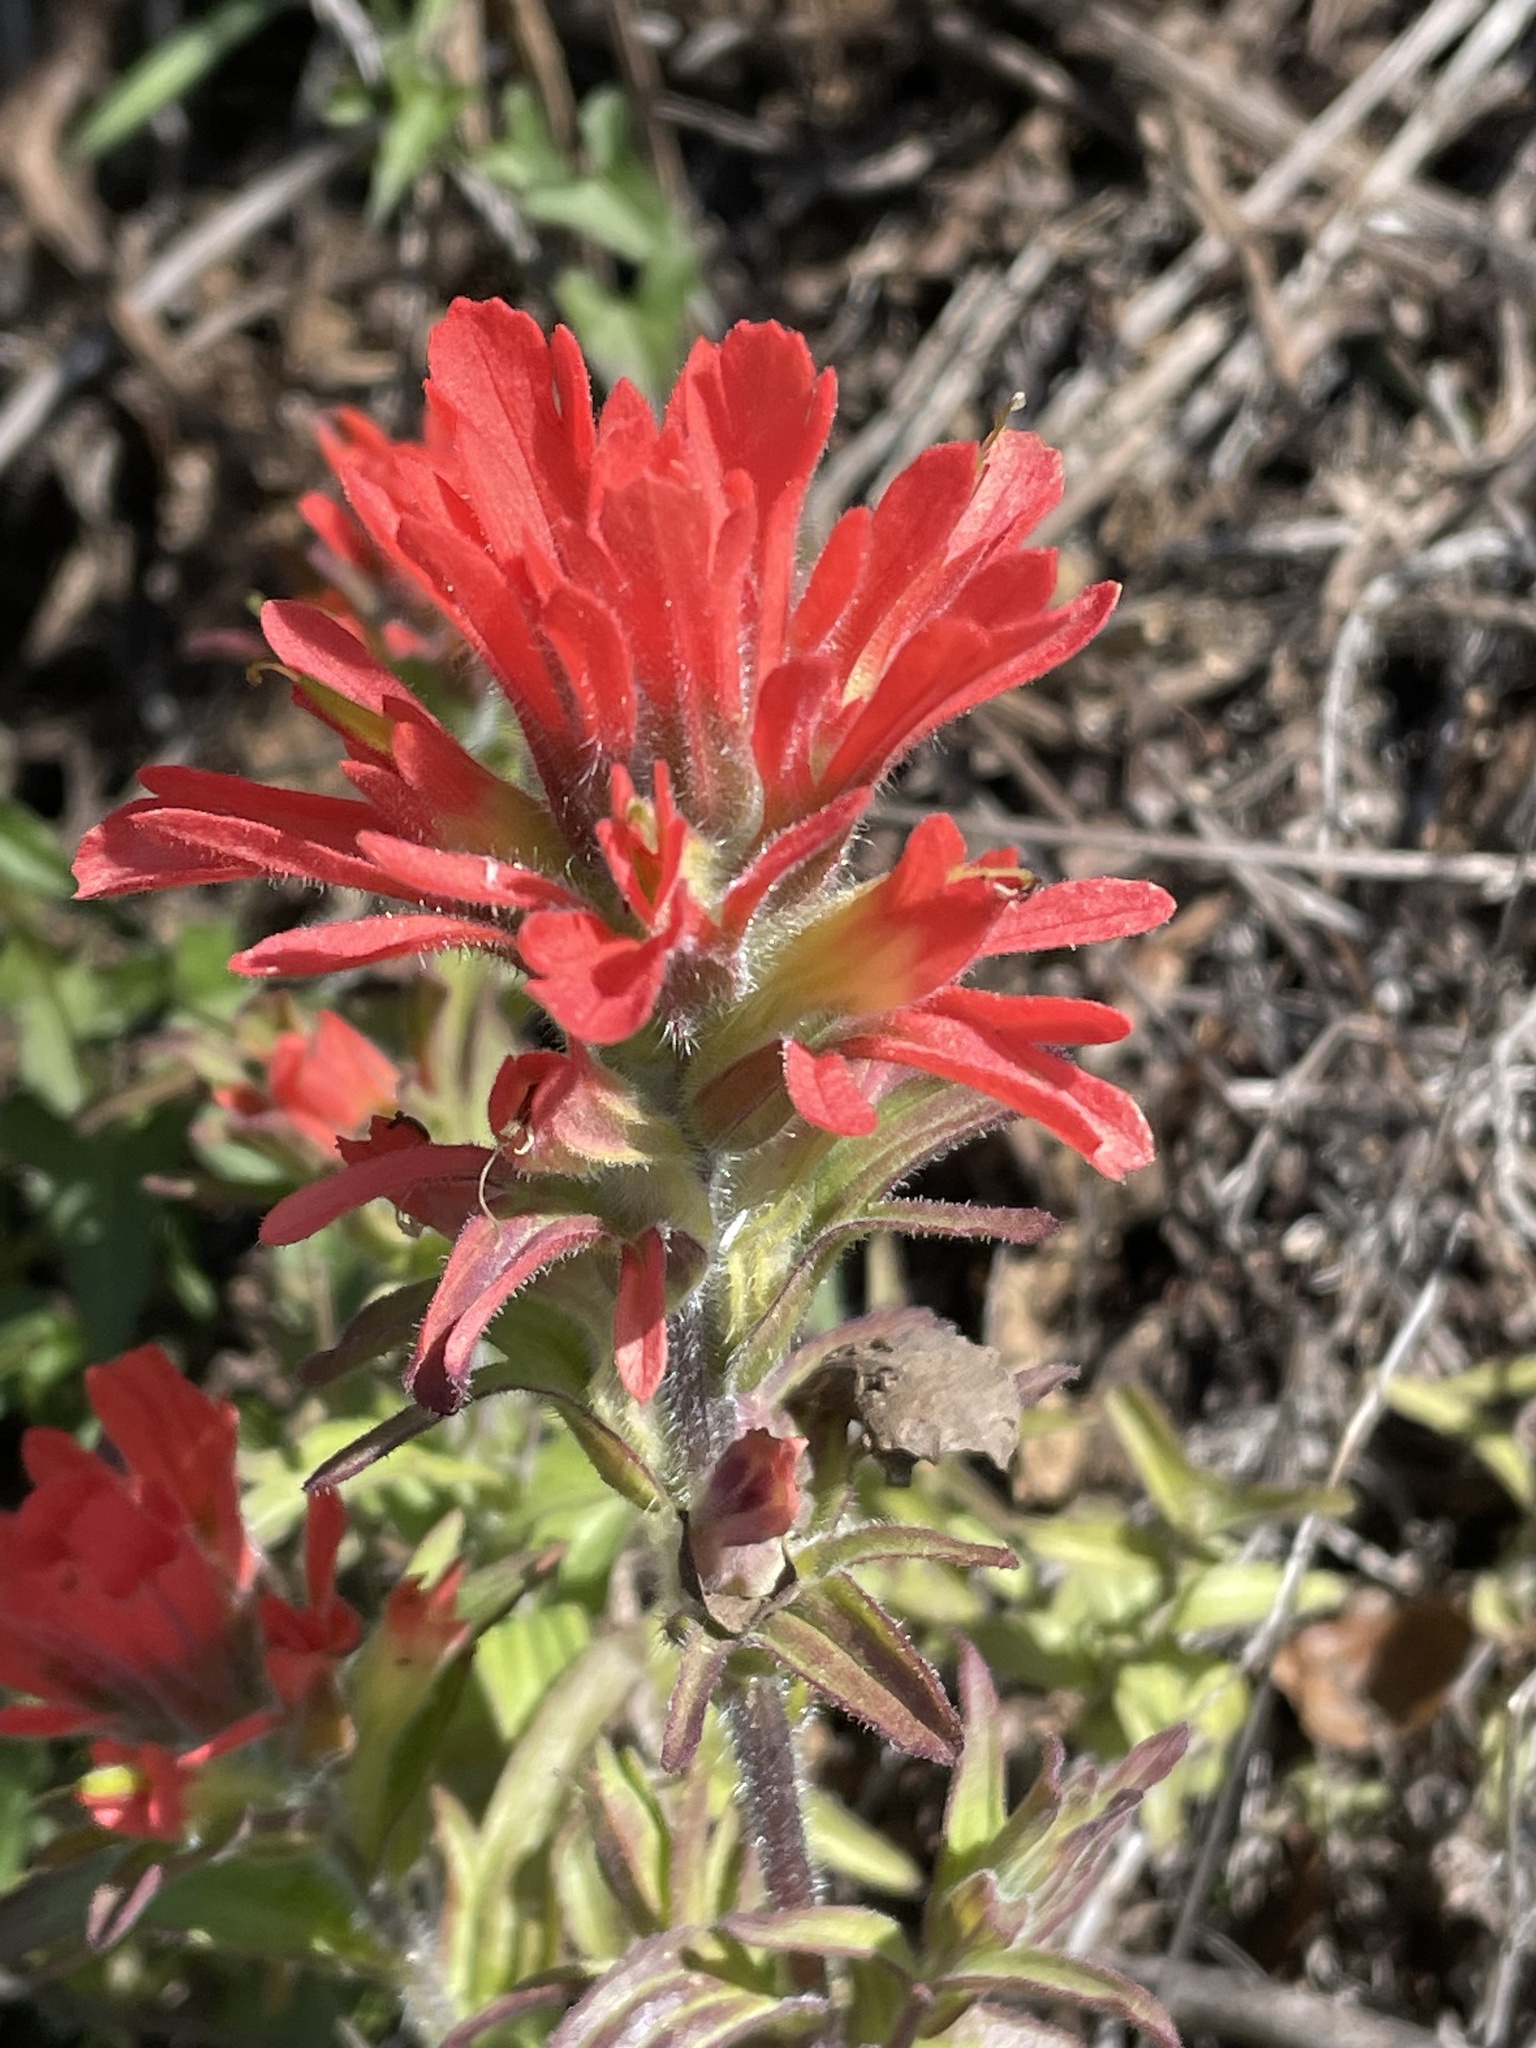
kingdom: Plantae
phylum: Tracheophyta
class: Magnoliopsida
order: Lamiales
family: Orobanchaceae
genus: Castilleja
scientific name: Castilleja affinis
